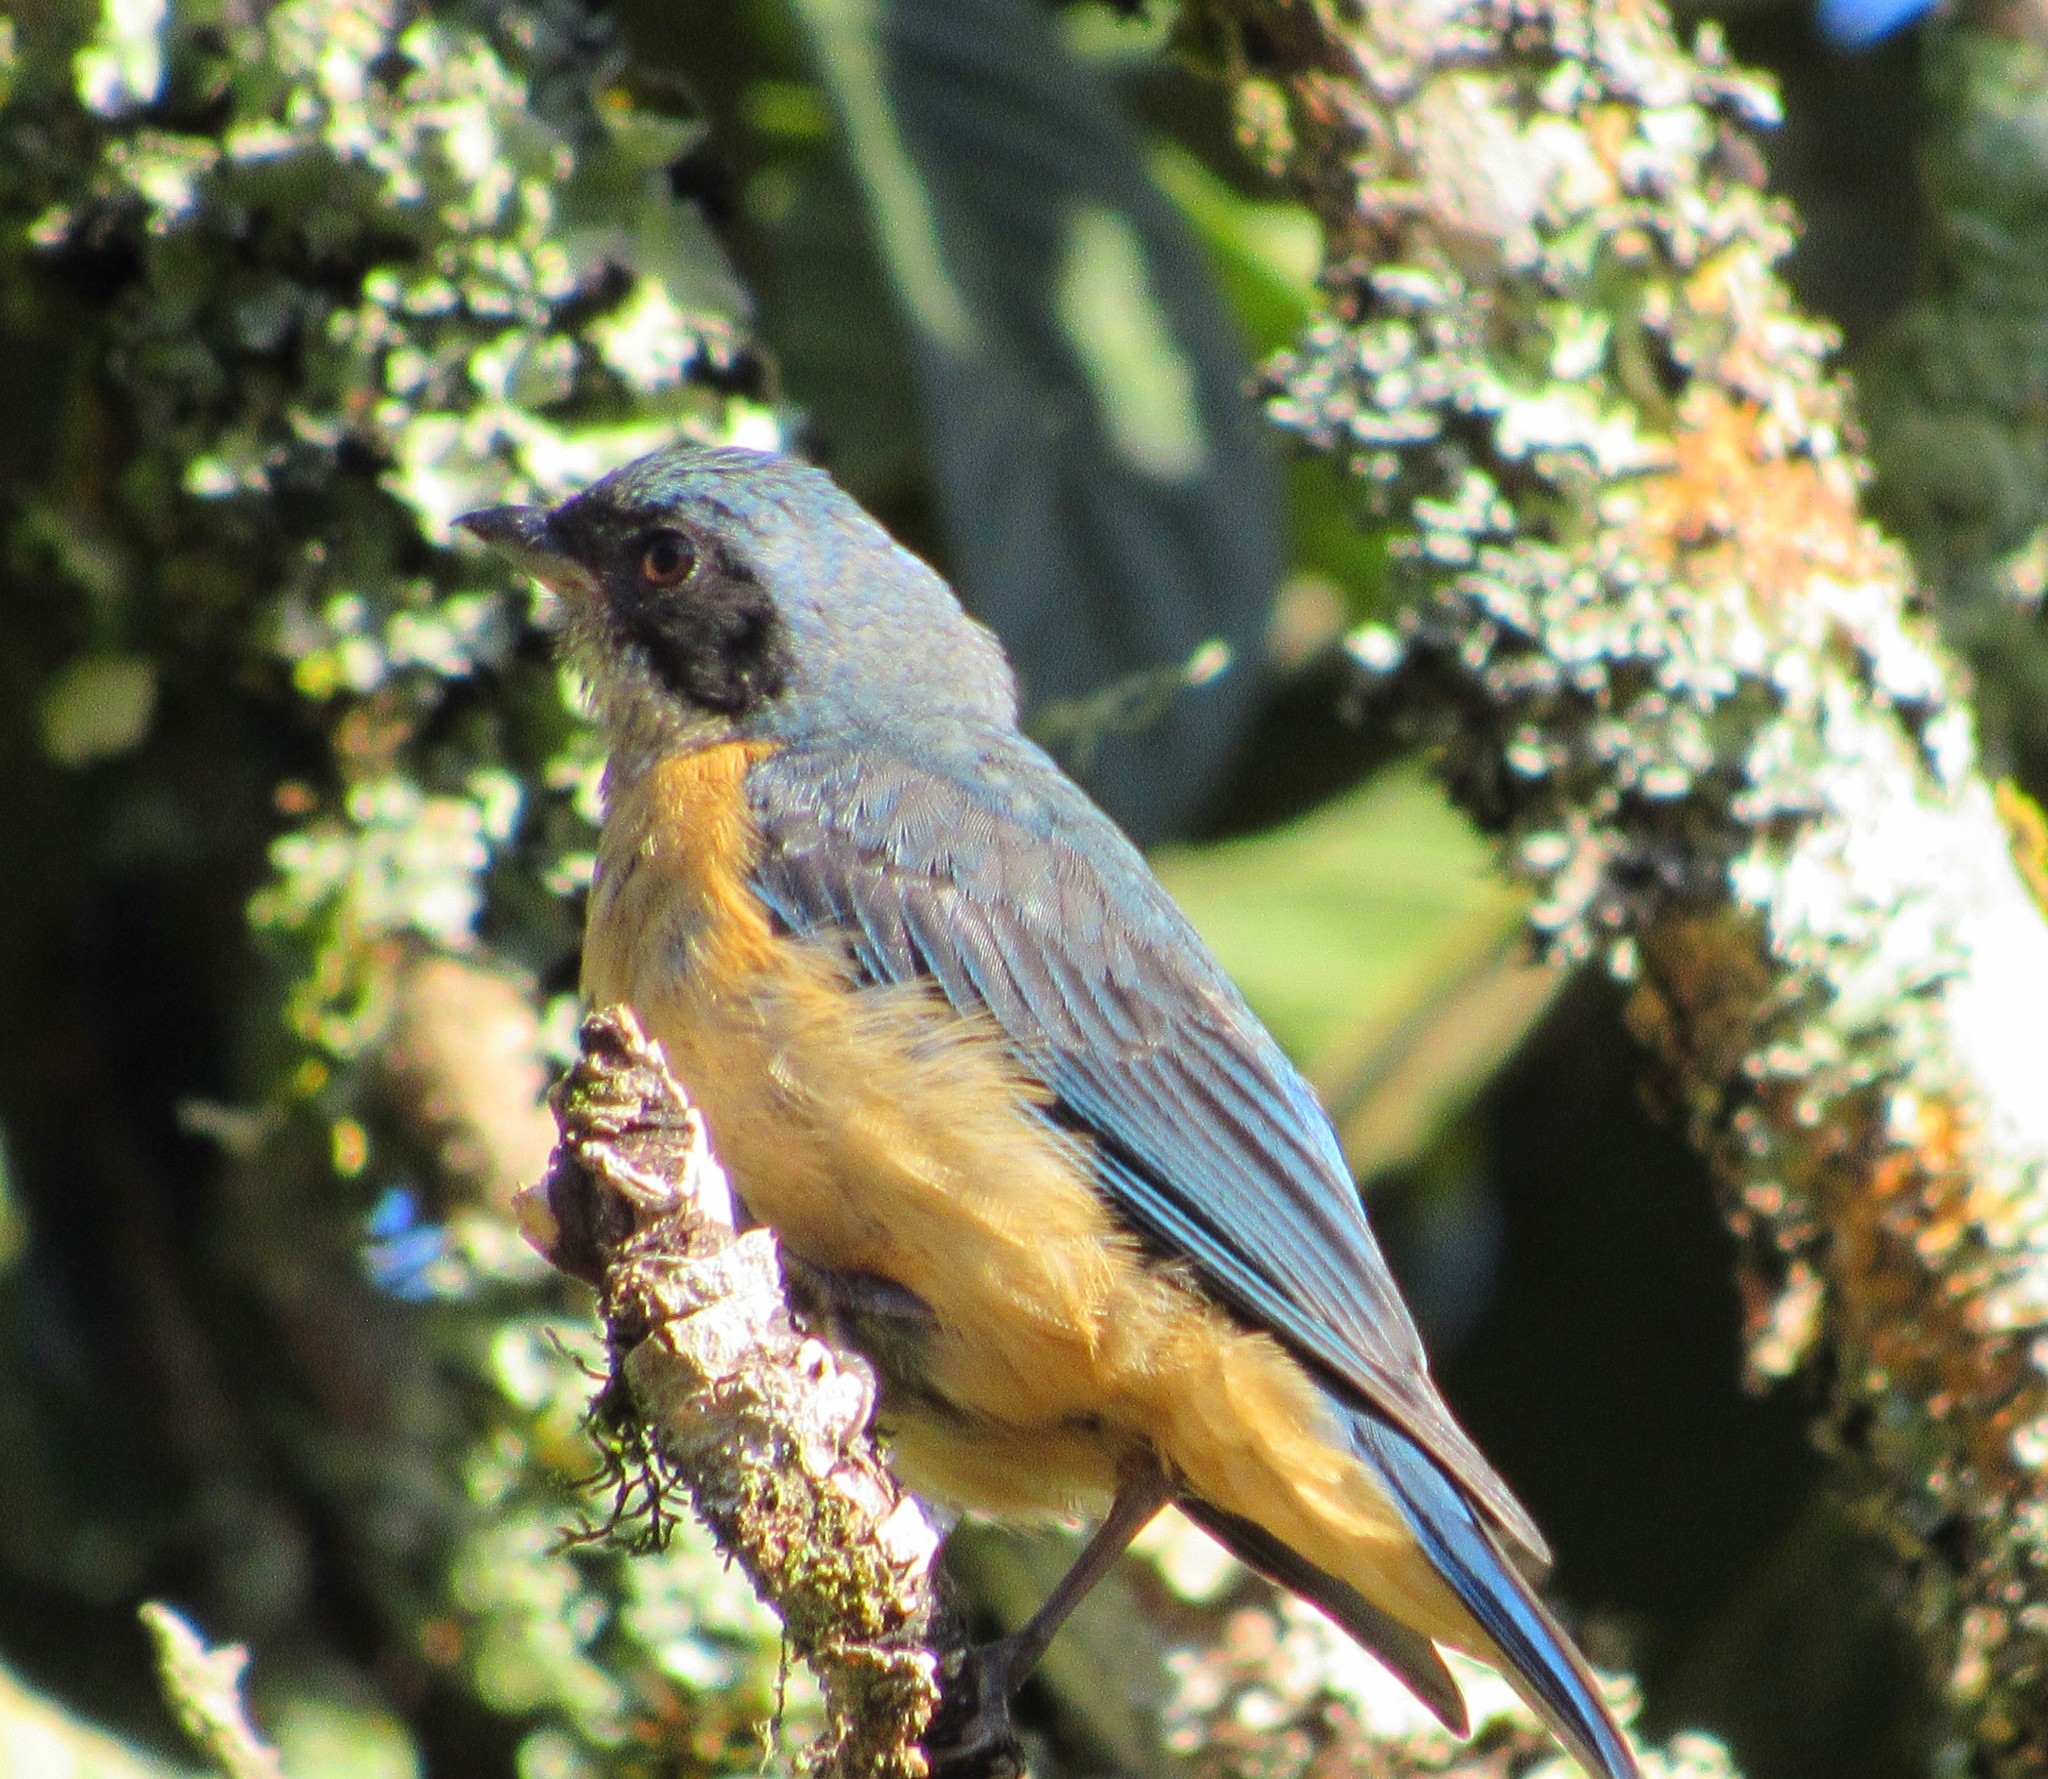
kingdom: Animalia
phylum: Chordata
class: Aves
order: Passeriformes
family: Thraupidae
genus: Pipraeidea
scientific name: Pipraeidea melanonota
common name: Fawn-breasted tanager
